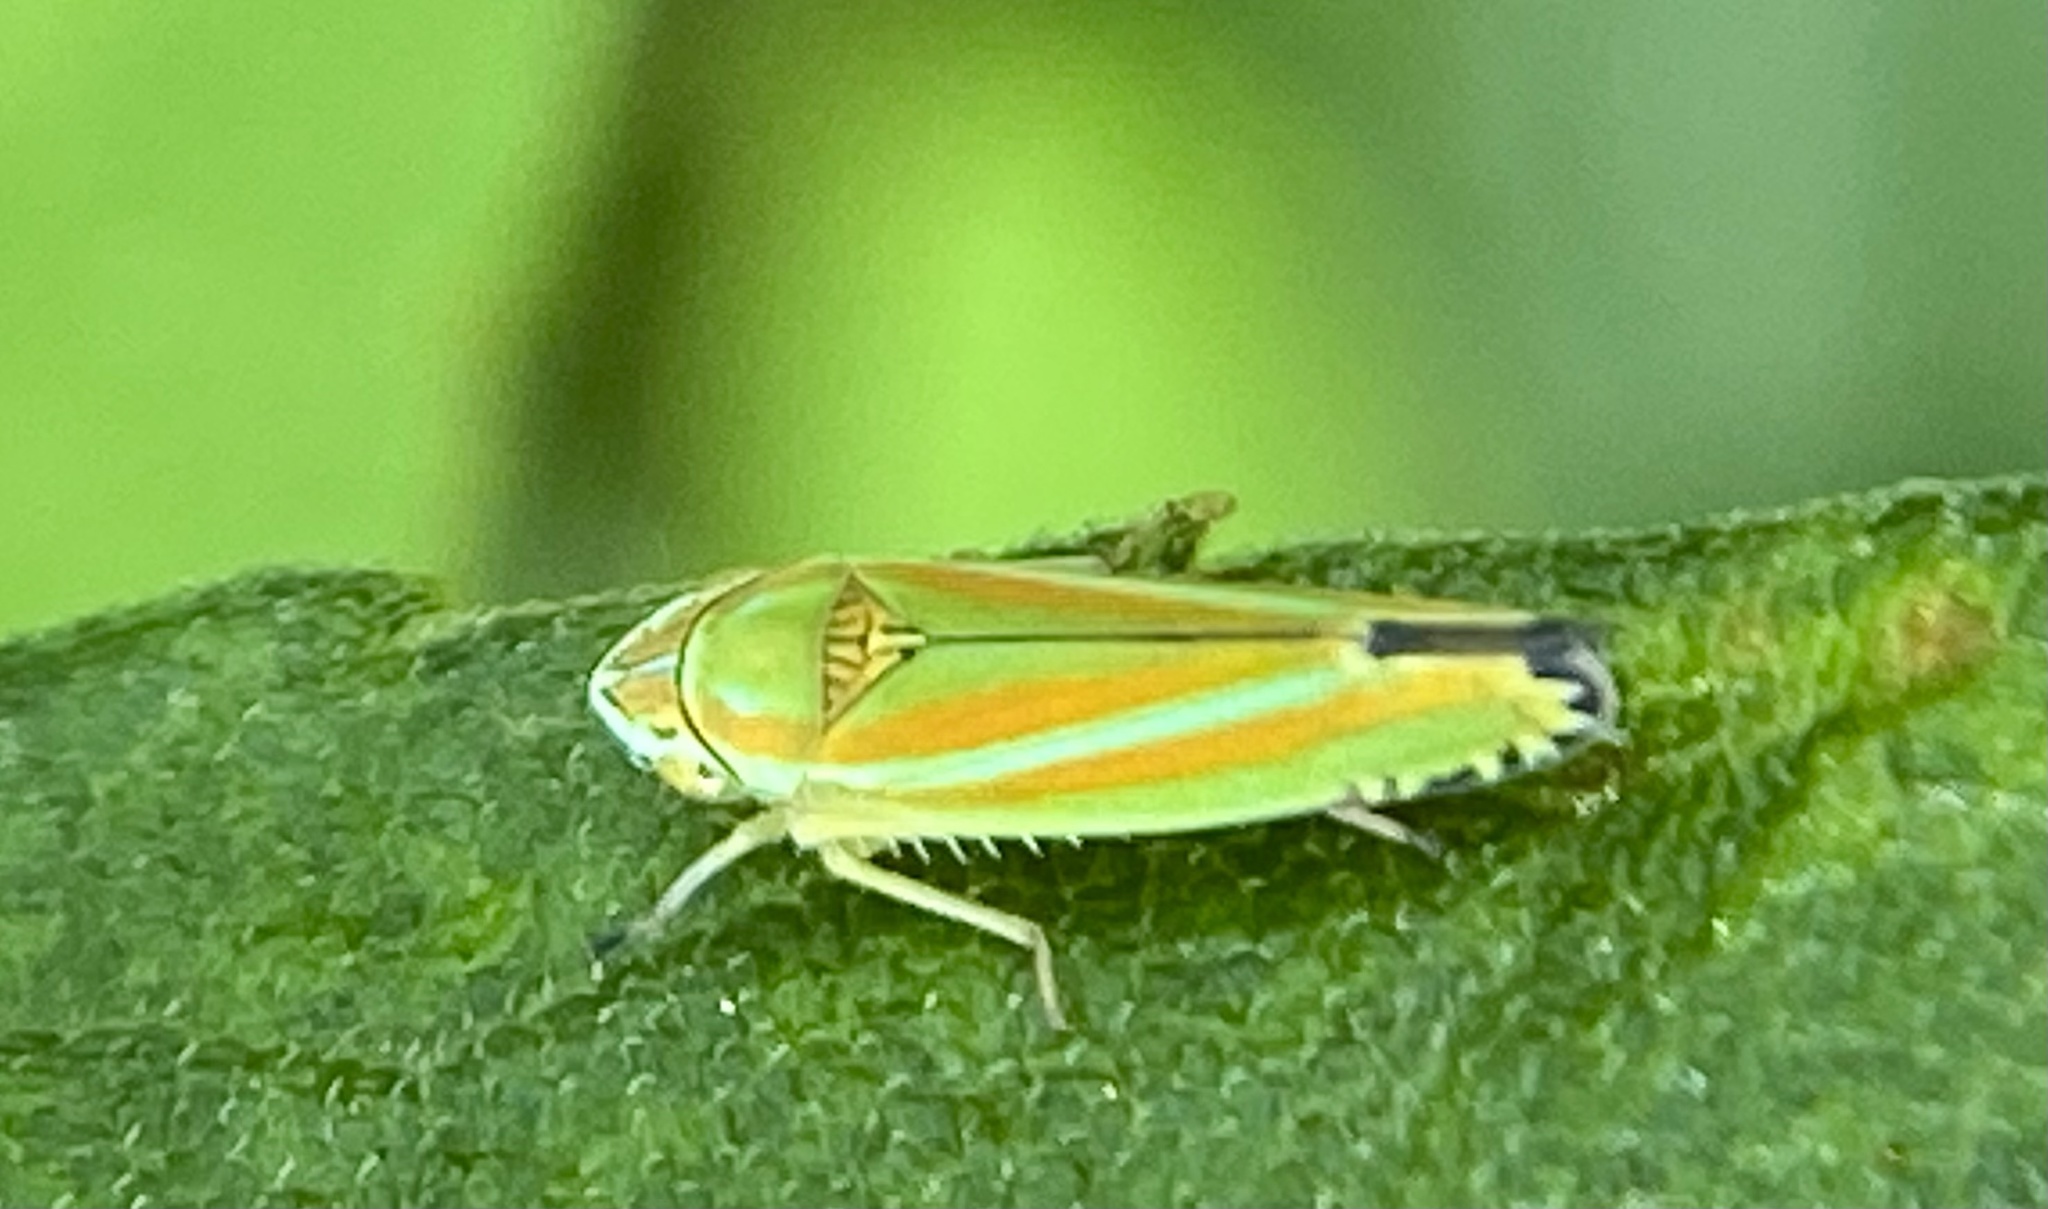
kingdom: Animalia
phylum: Arthropoda
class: Insecta
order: Hemiptera
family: Cicadellidae
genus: Graphocephala
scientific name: Graphocephala versuta
